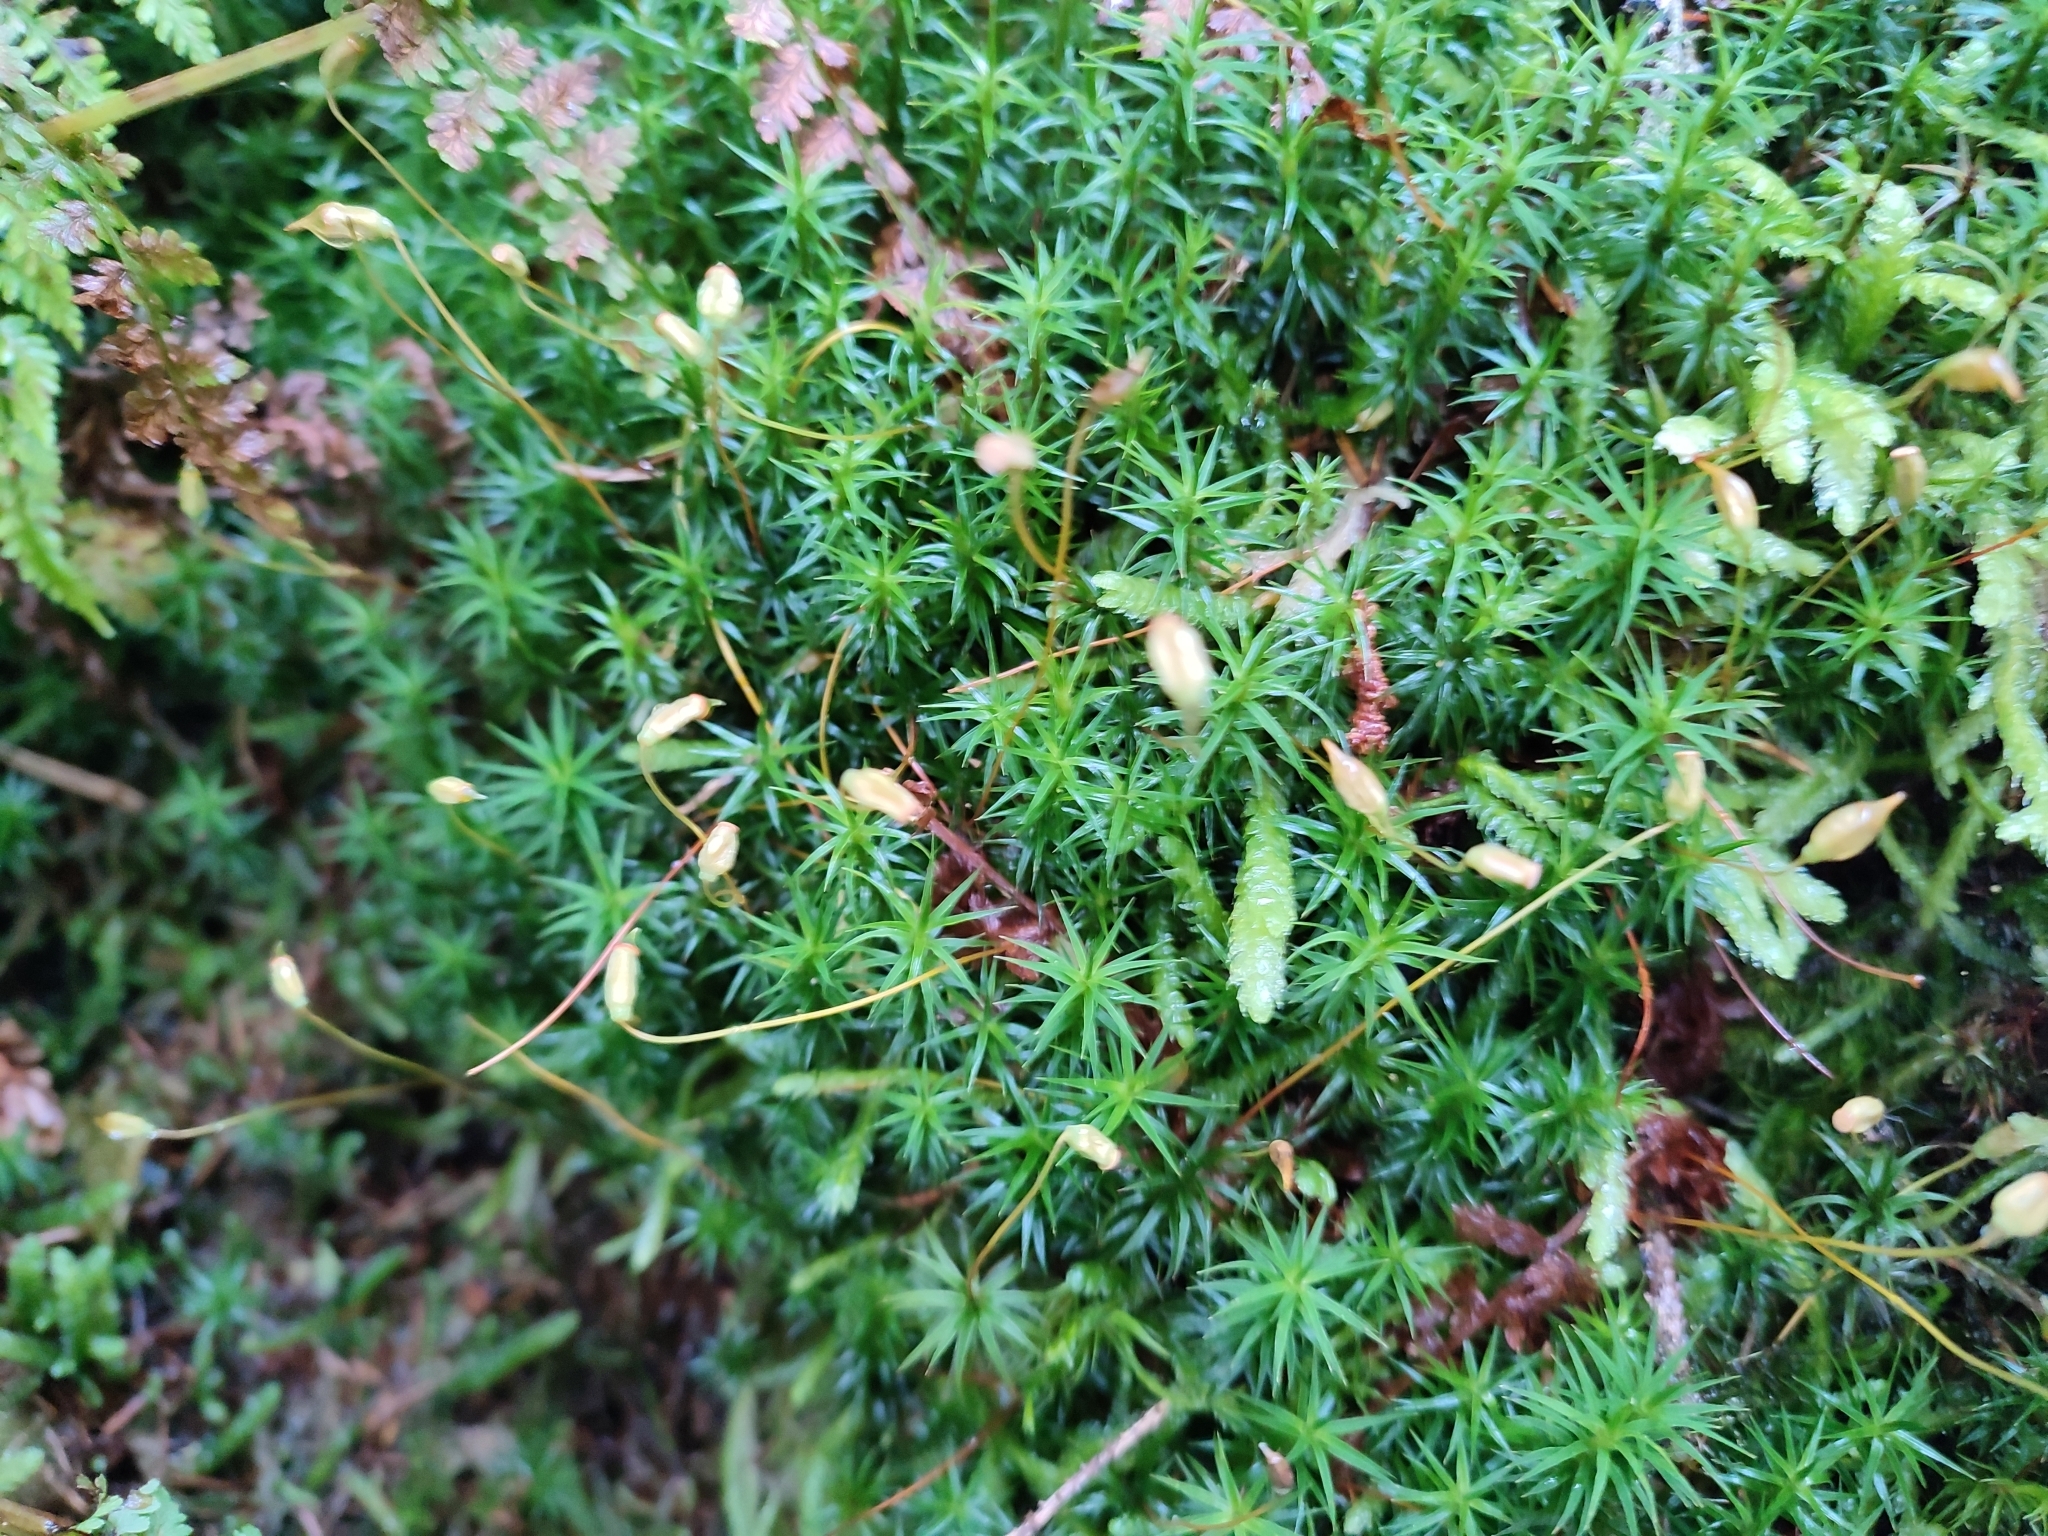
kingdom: Plantae
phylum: Bryophyta
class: Polytrichopsida
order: Polytrichales
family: Polytrichaceae
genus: Polytrichum
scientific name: Polytrichum formosum
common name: Bank haircap moss
